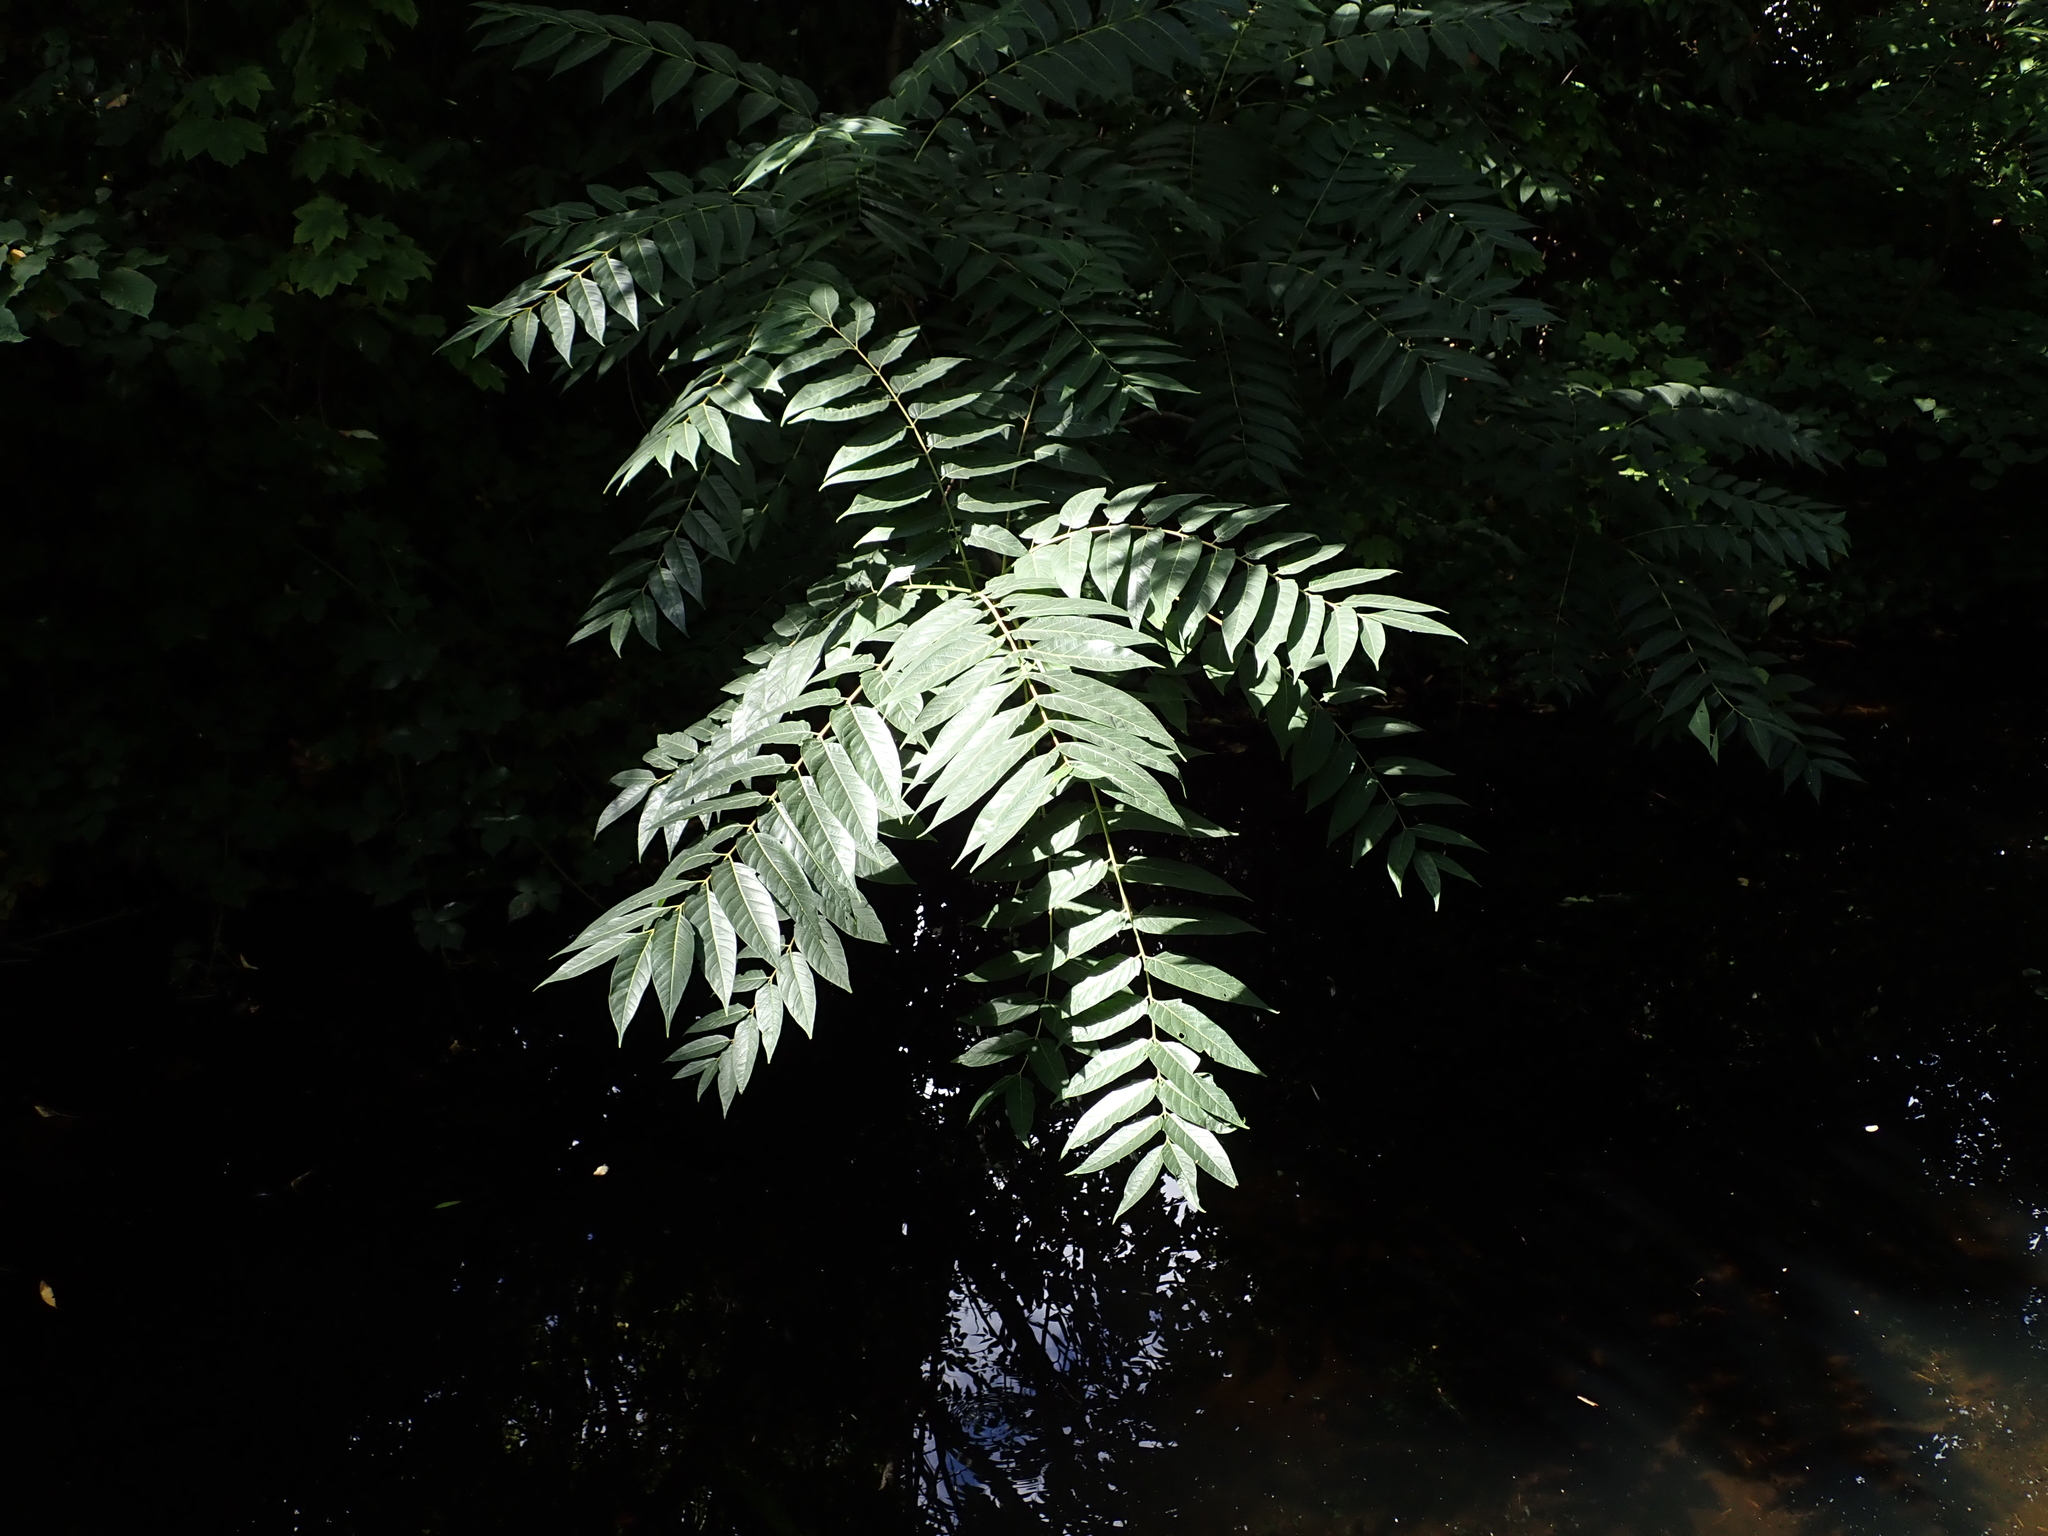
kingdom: Plantae
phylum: Tracheophyta
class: Magnoliopsida
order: Sapindales
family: Simaroubaceae
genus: Ailanthus
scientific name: Ailanthus altissima
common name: Tree-of-heaven
